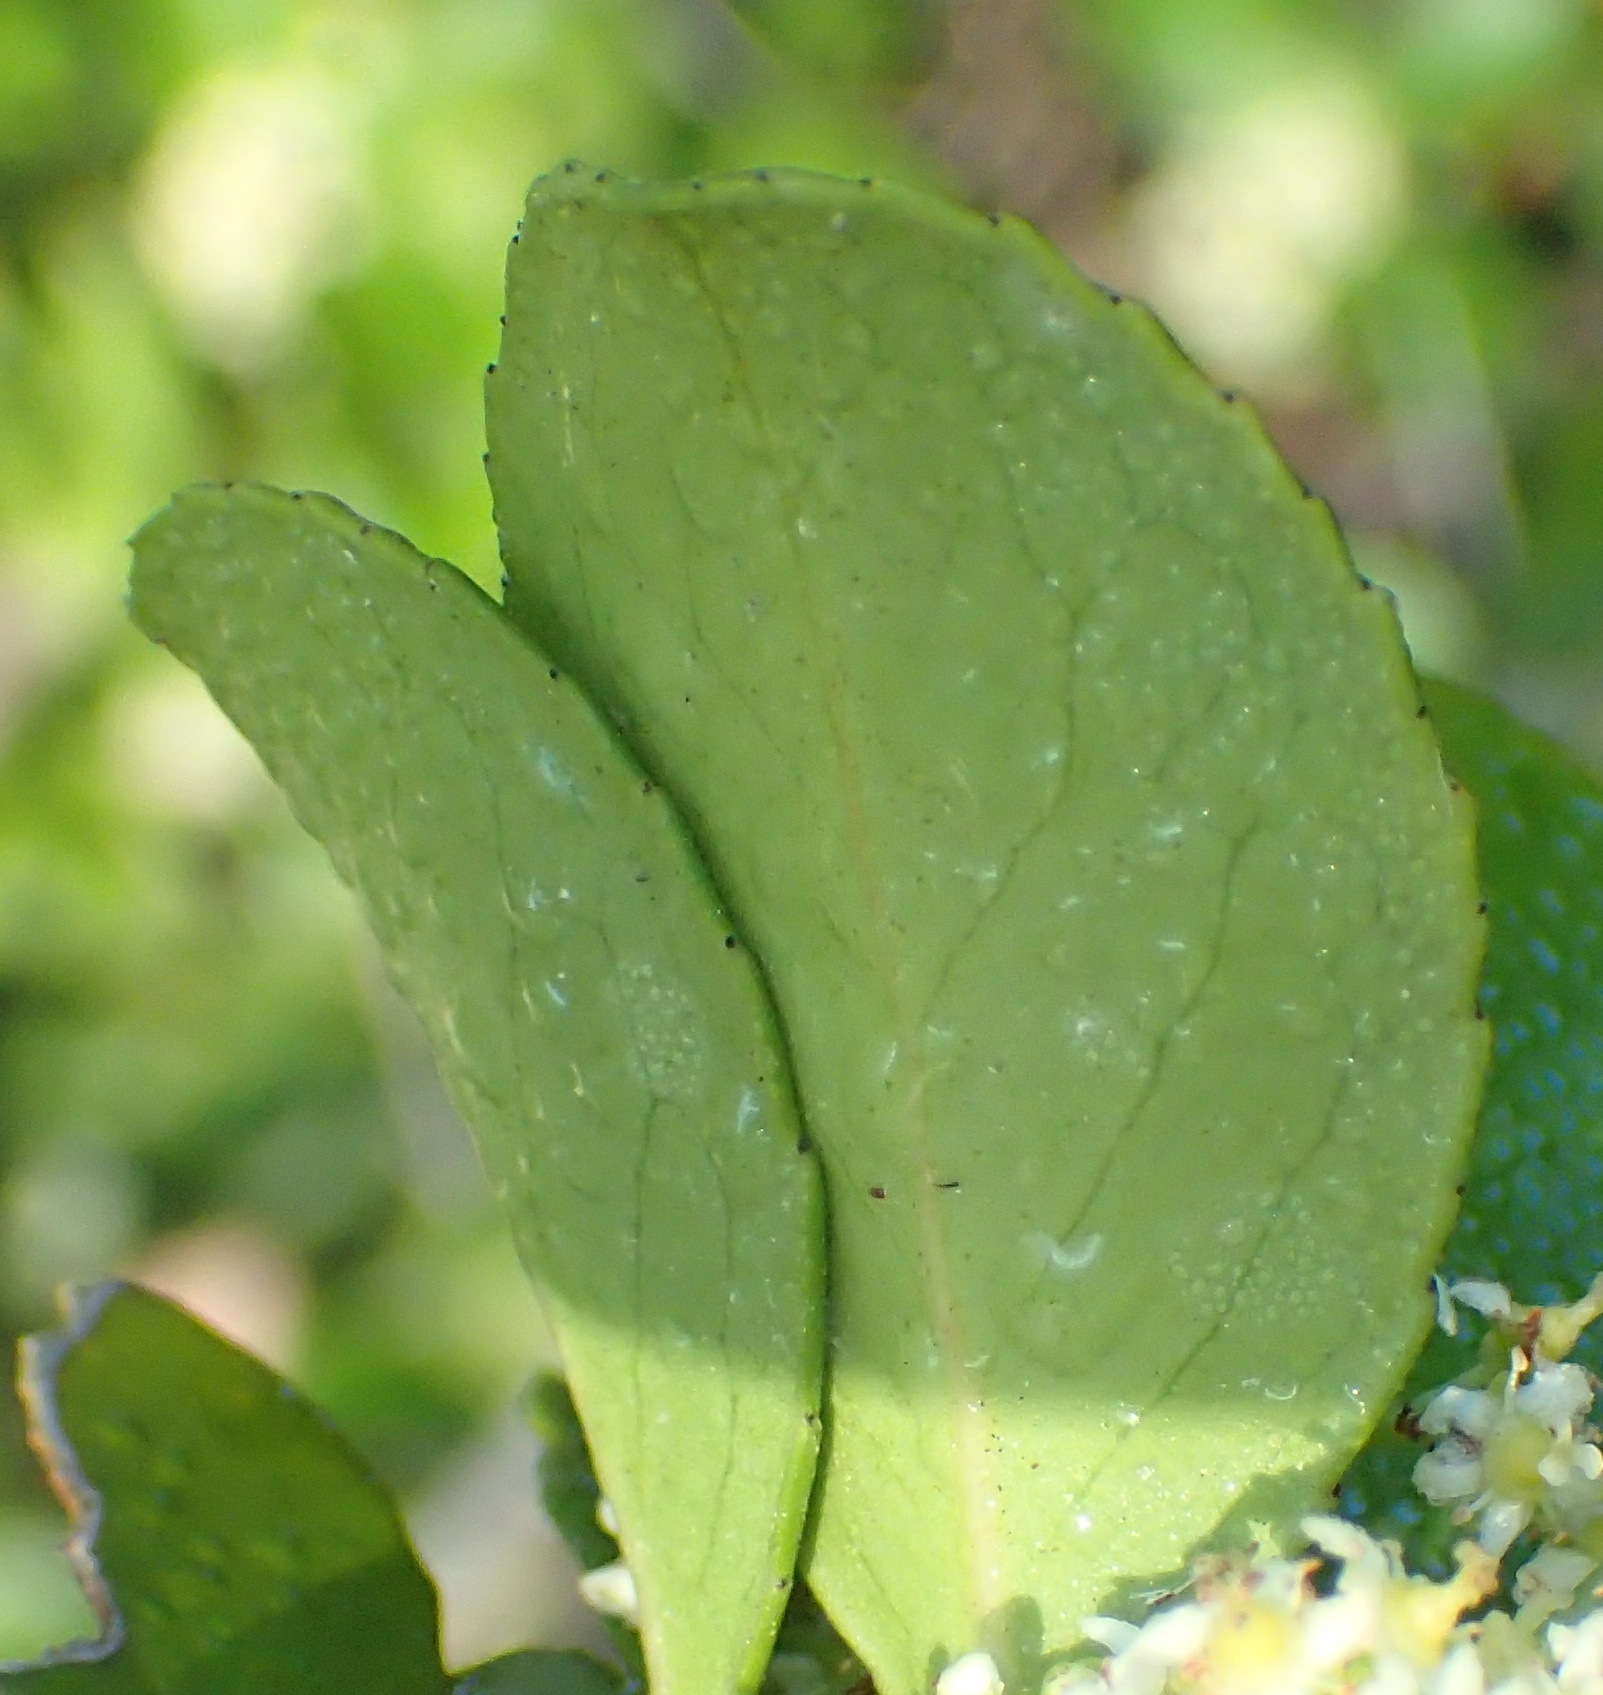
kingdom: Plantae
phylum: Tracheophyta
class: Magnoliopsida
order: Celastrales
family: Celastraceae
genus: Gymnosporia
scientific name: Gymnosporia nemorosa
